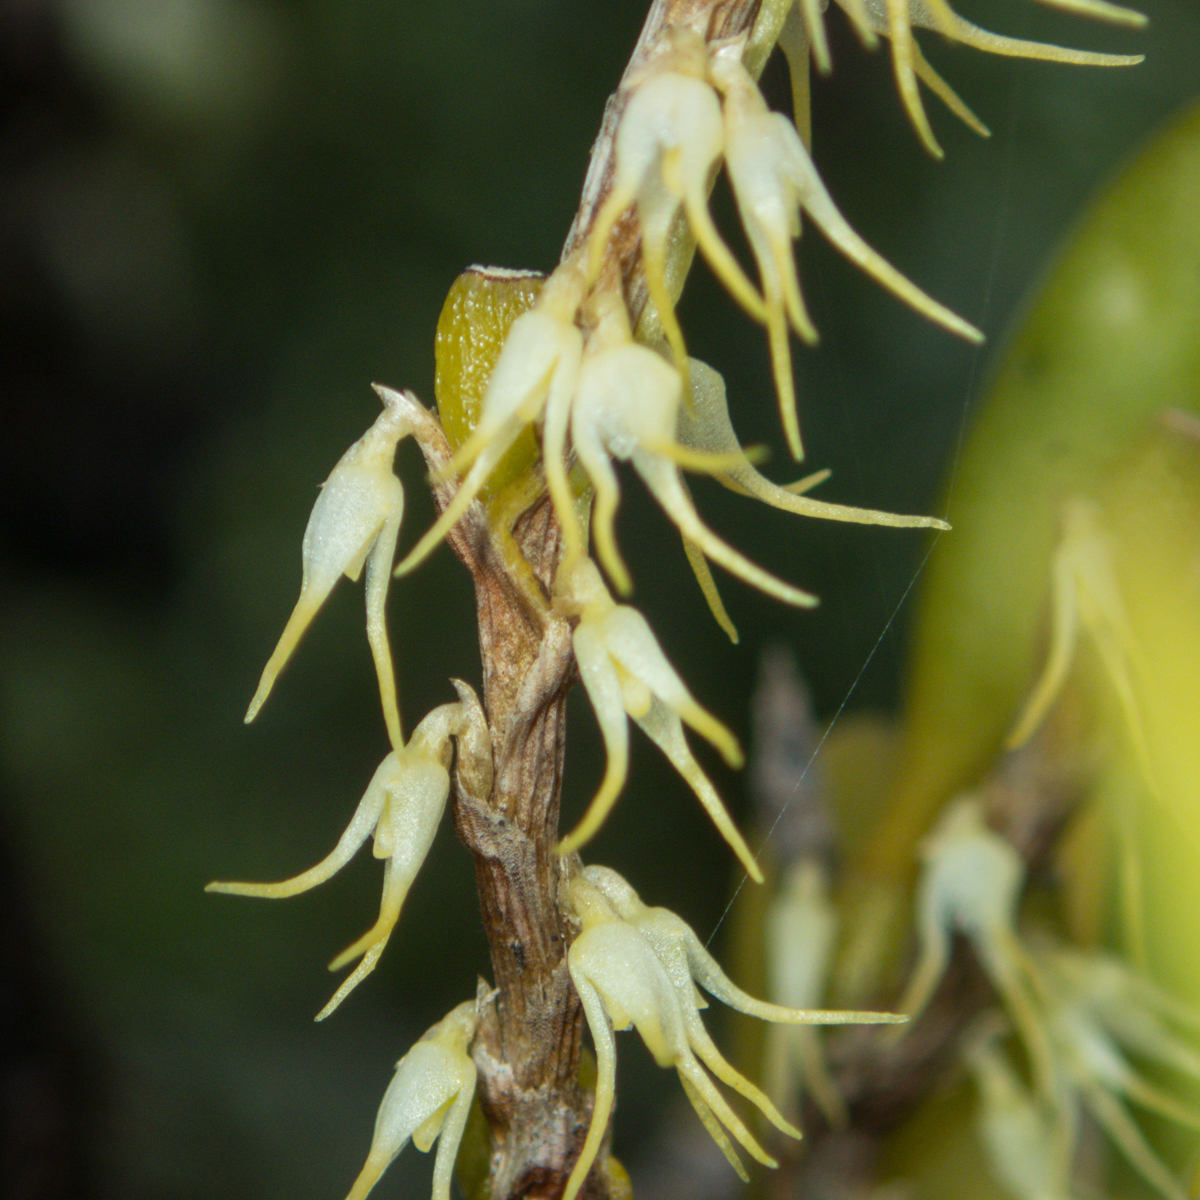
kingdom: Plantae
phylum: Tracheophyta
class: Liliopsida
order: Asparagales
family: Orchidaceae
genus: Bulbophyllum
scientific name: Bulbophyllum clandestinum
